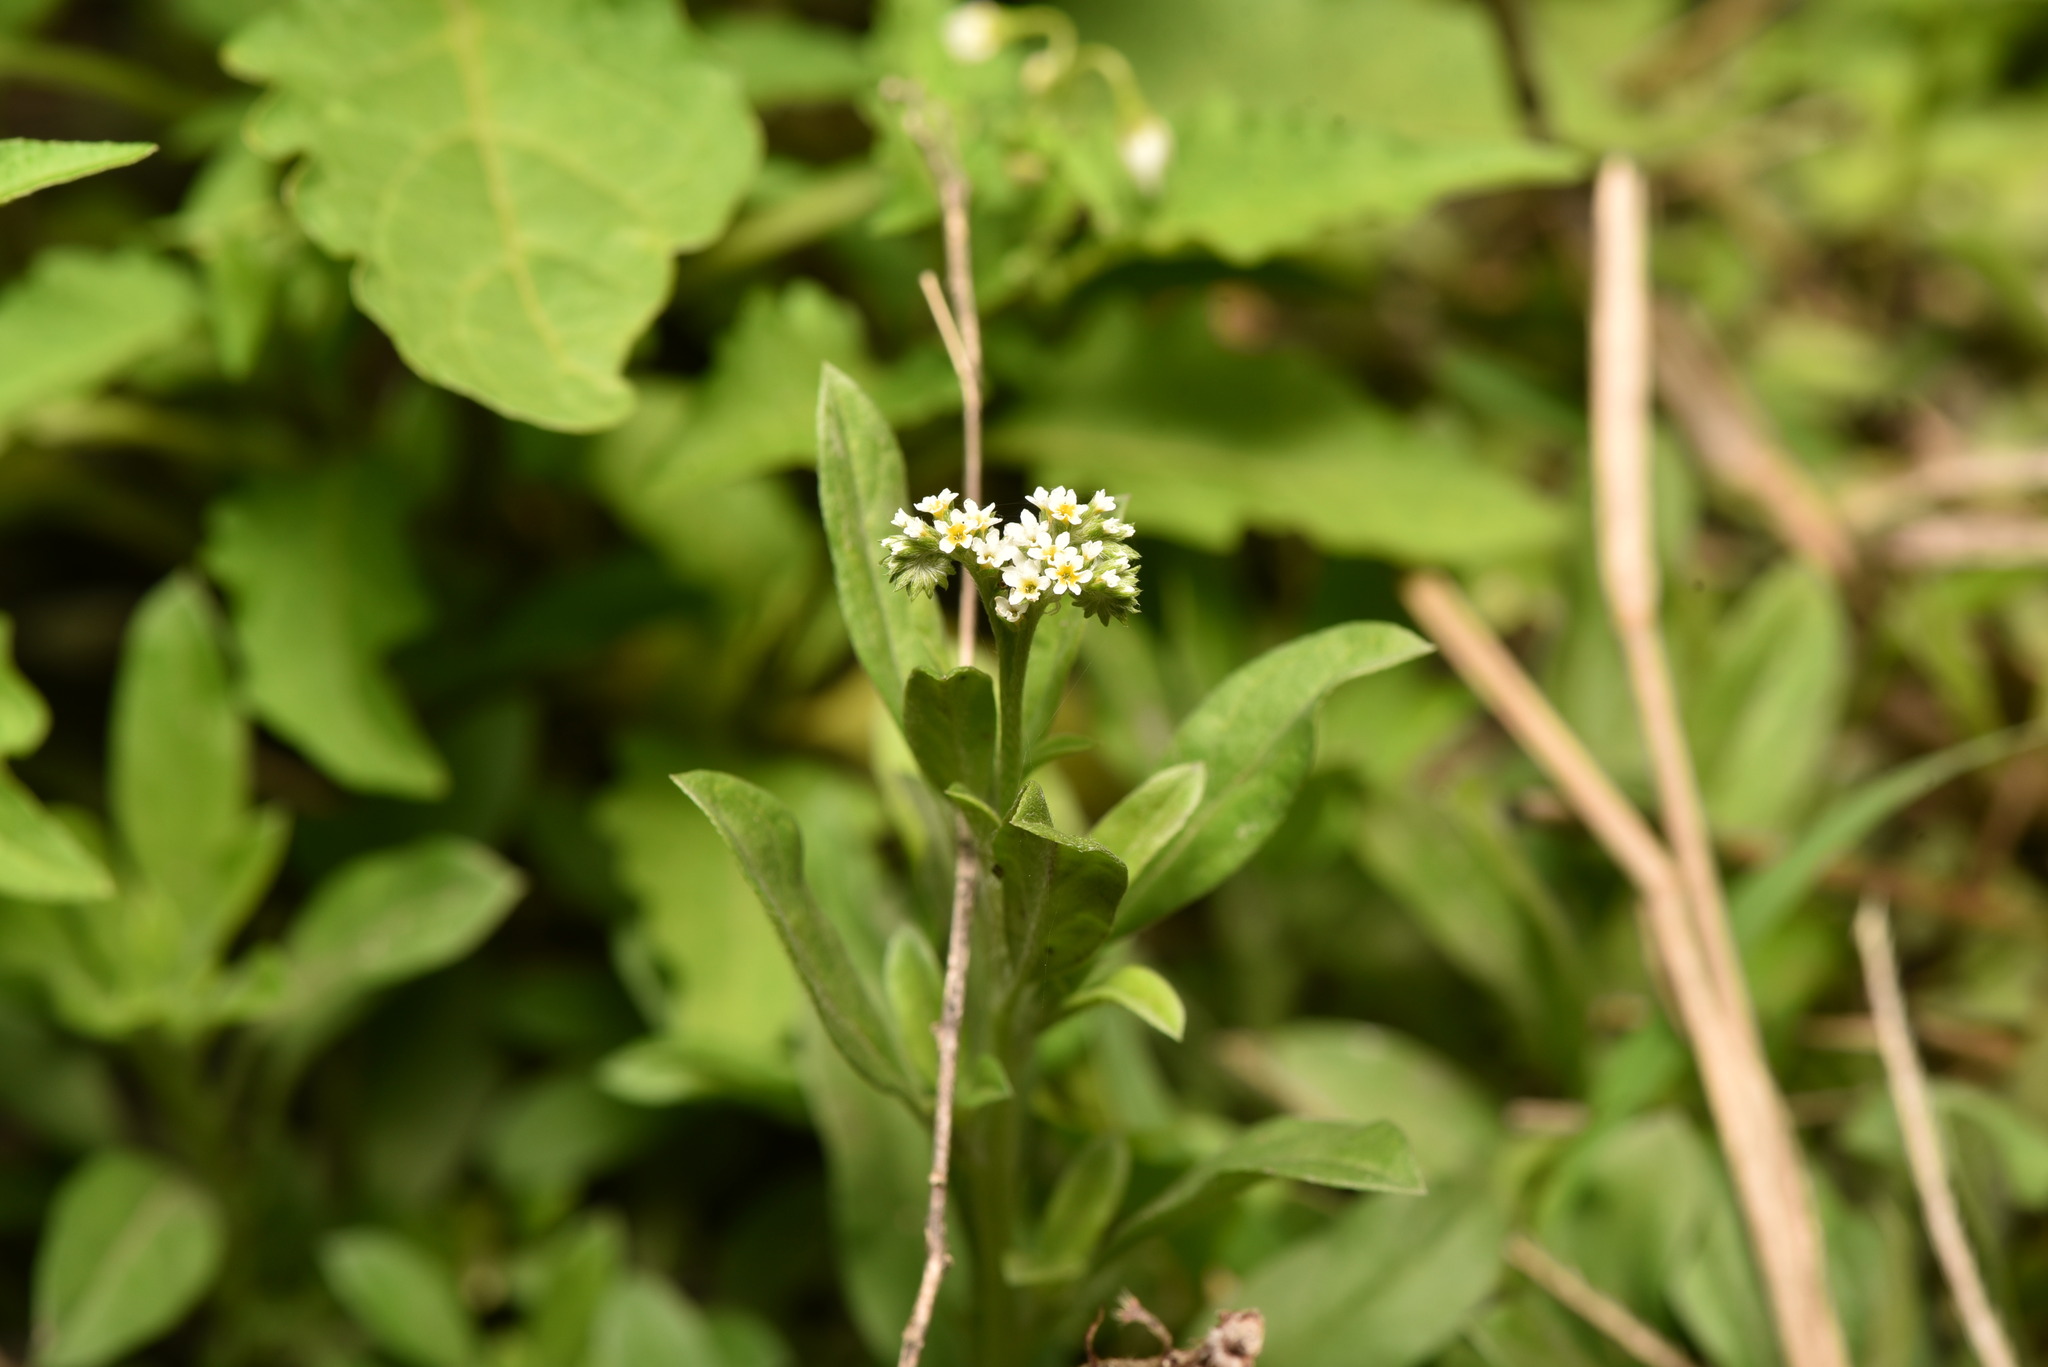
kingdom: Plantae
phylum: Tracheophyta
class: Magnoliopsida
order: Boraginales
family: Heliotropiaceae
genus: Euploca
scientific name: Euploca procumbens
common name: Fourspike heliotrope
